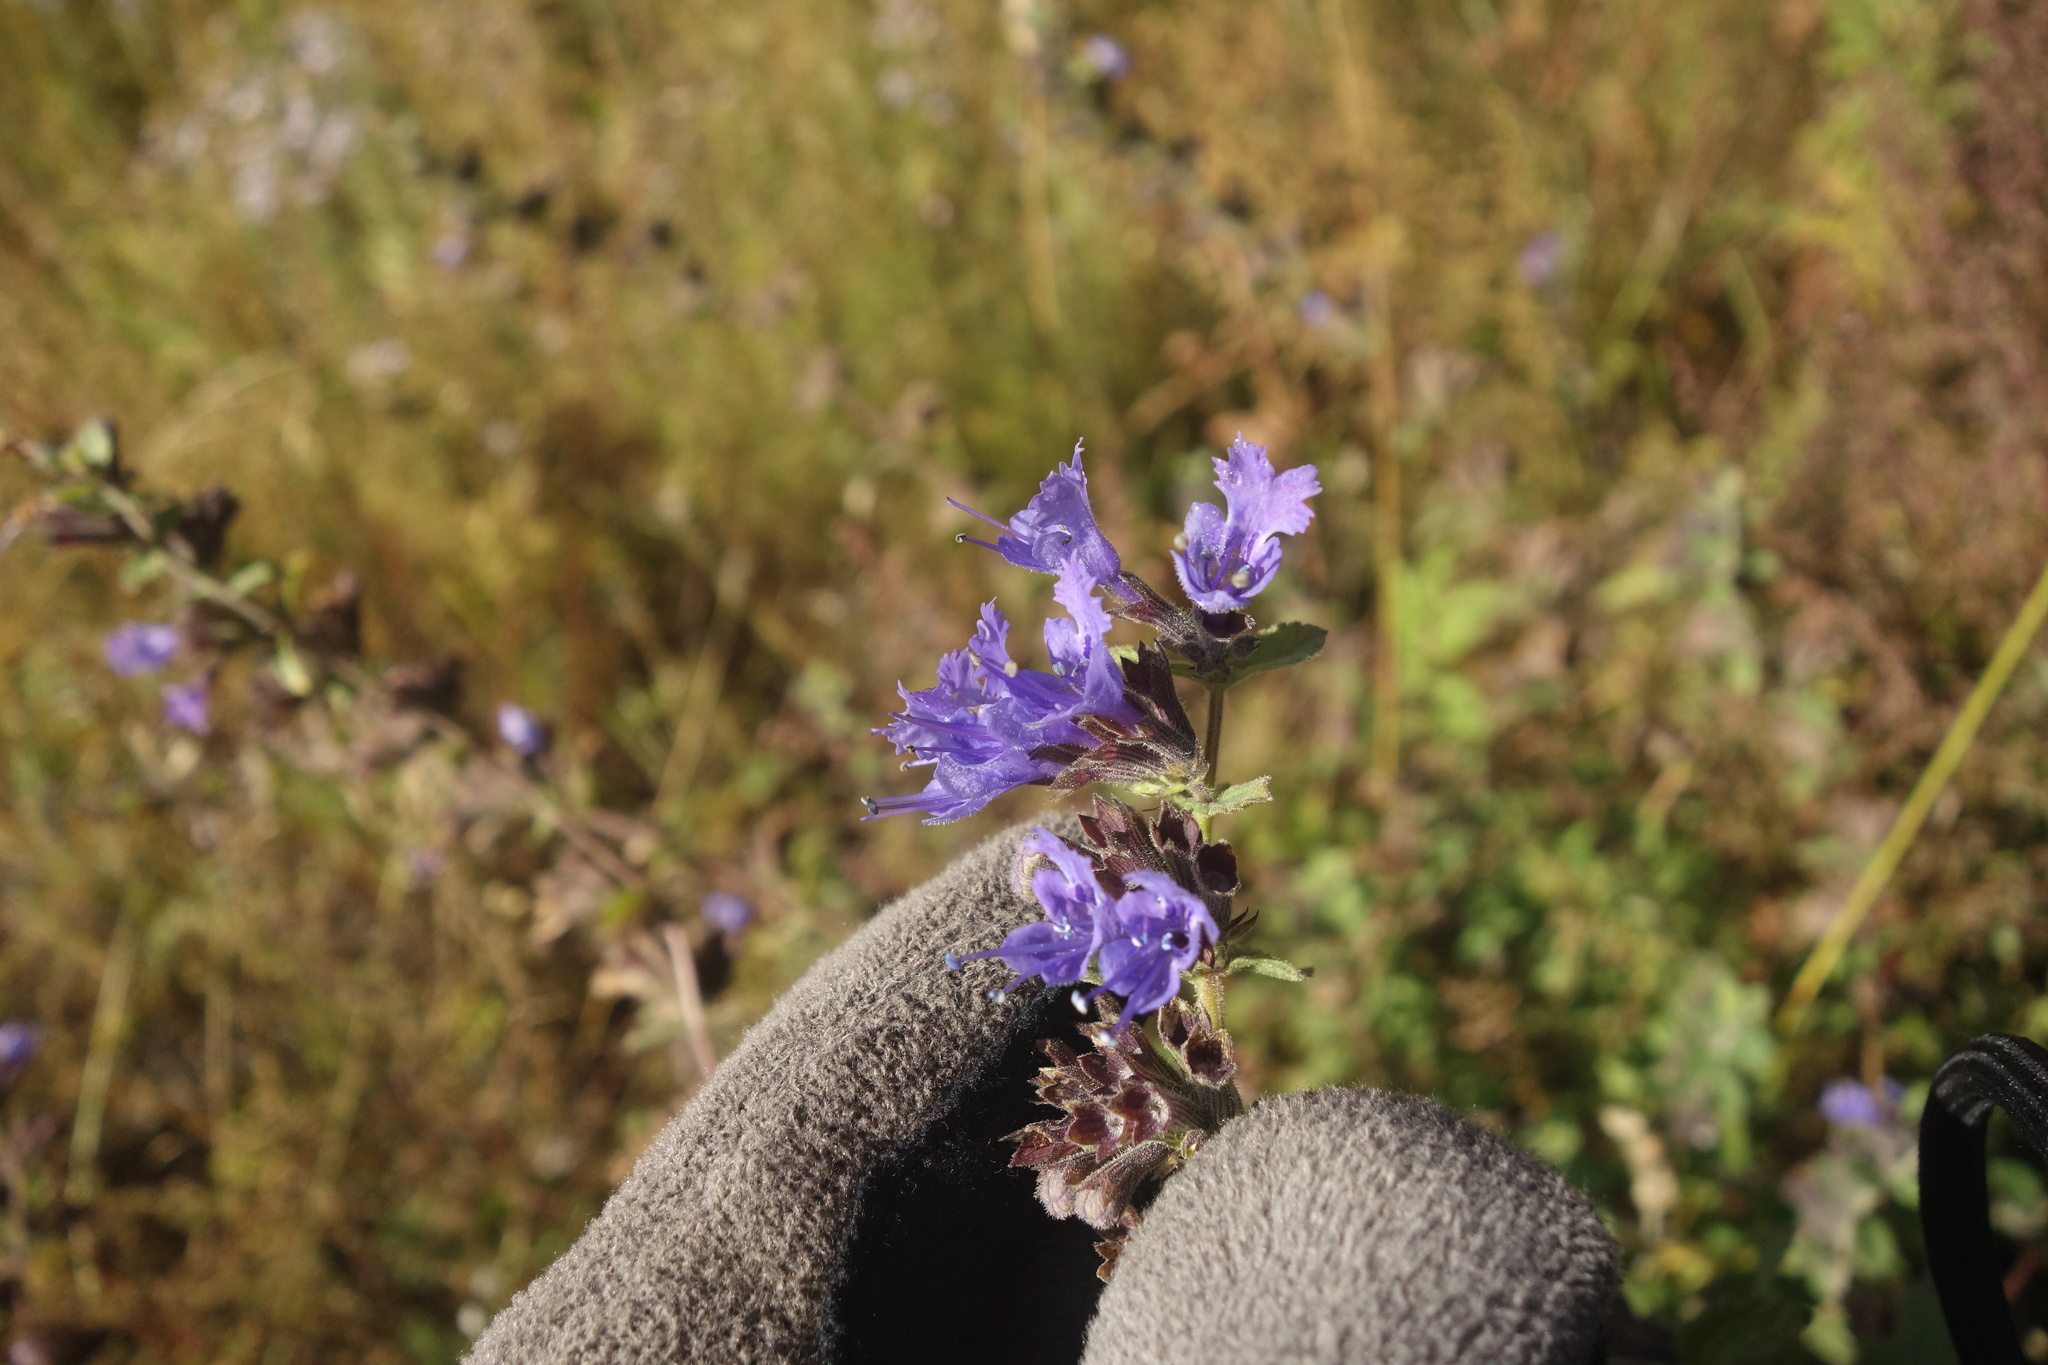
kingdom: Plantae
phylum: Tracheophyta
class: Magnoliopsida
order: Lamiales
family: Lamiaceae
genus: Nepeta
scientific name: Nepeta lophanthus
